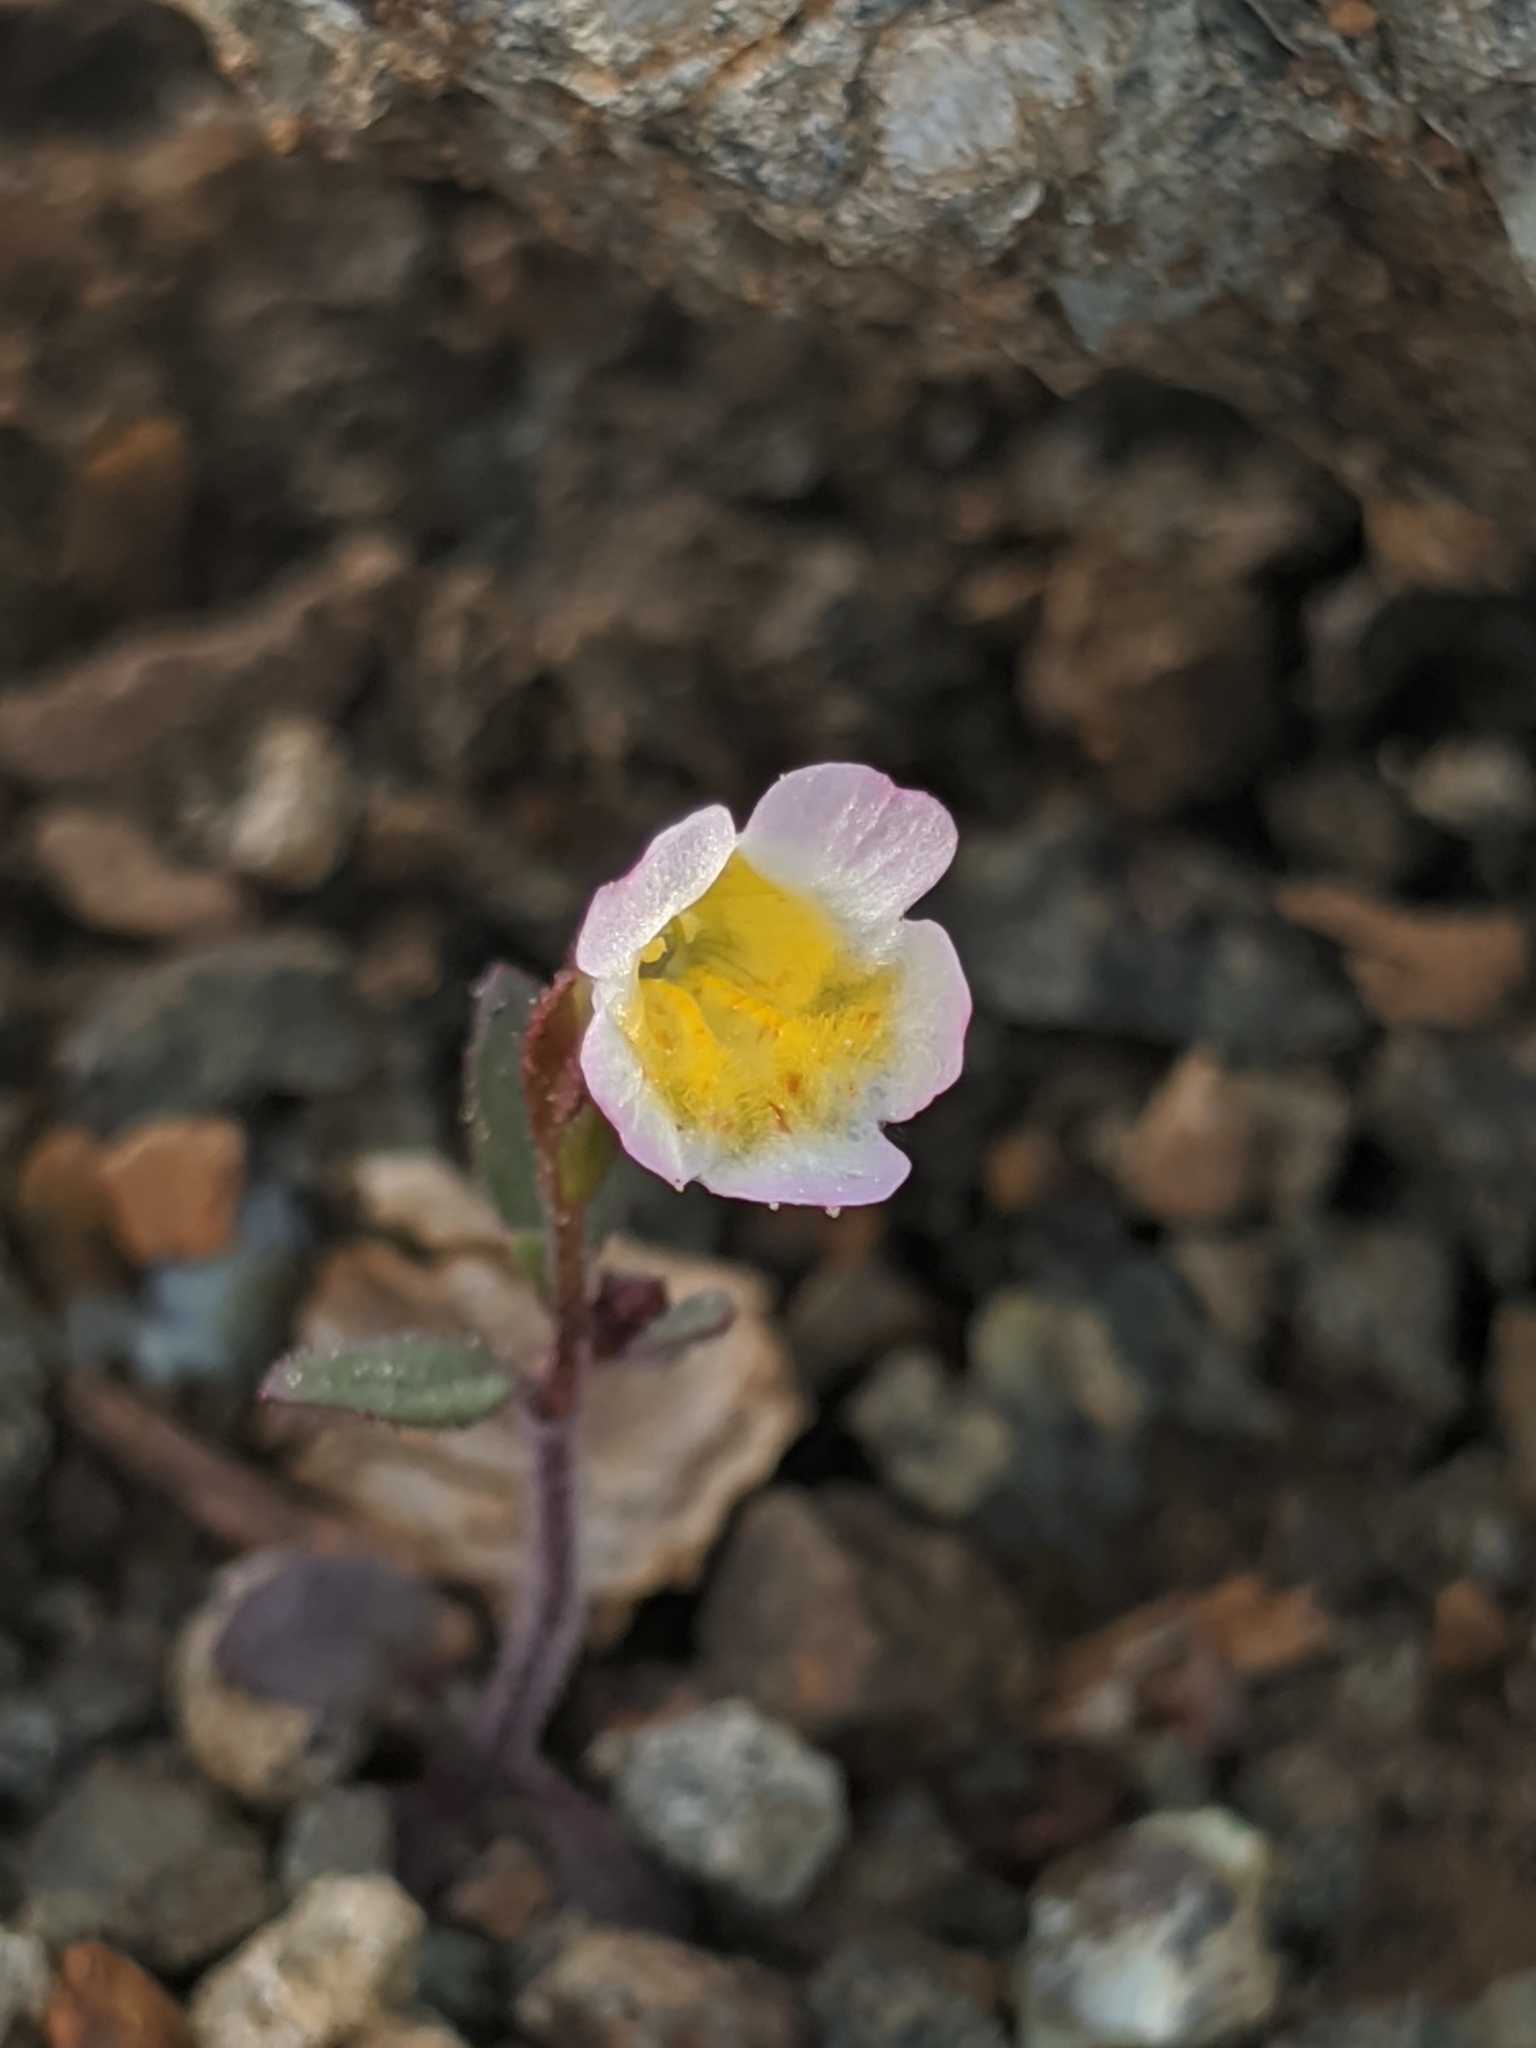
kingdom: Plantae
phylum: Tracheophyta
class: Magnoliopsida
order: Lamiales
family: Phrymaceae
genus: Erythranthe
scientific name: Erythranthe trinitiensis
